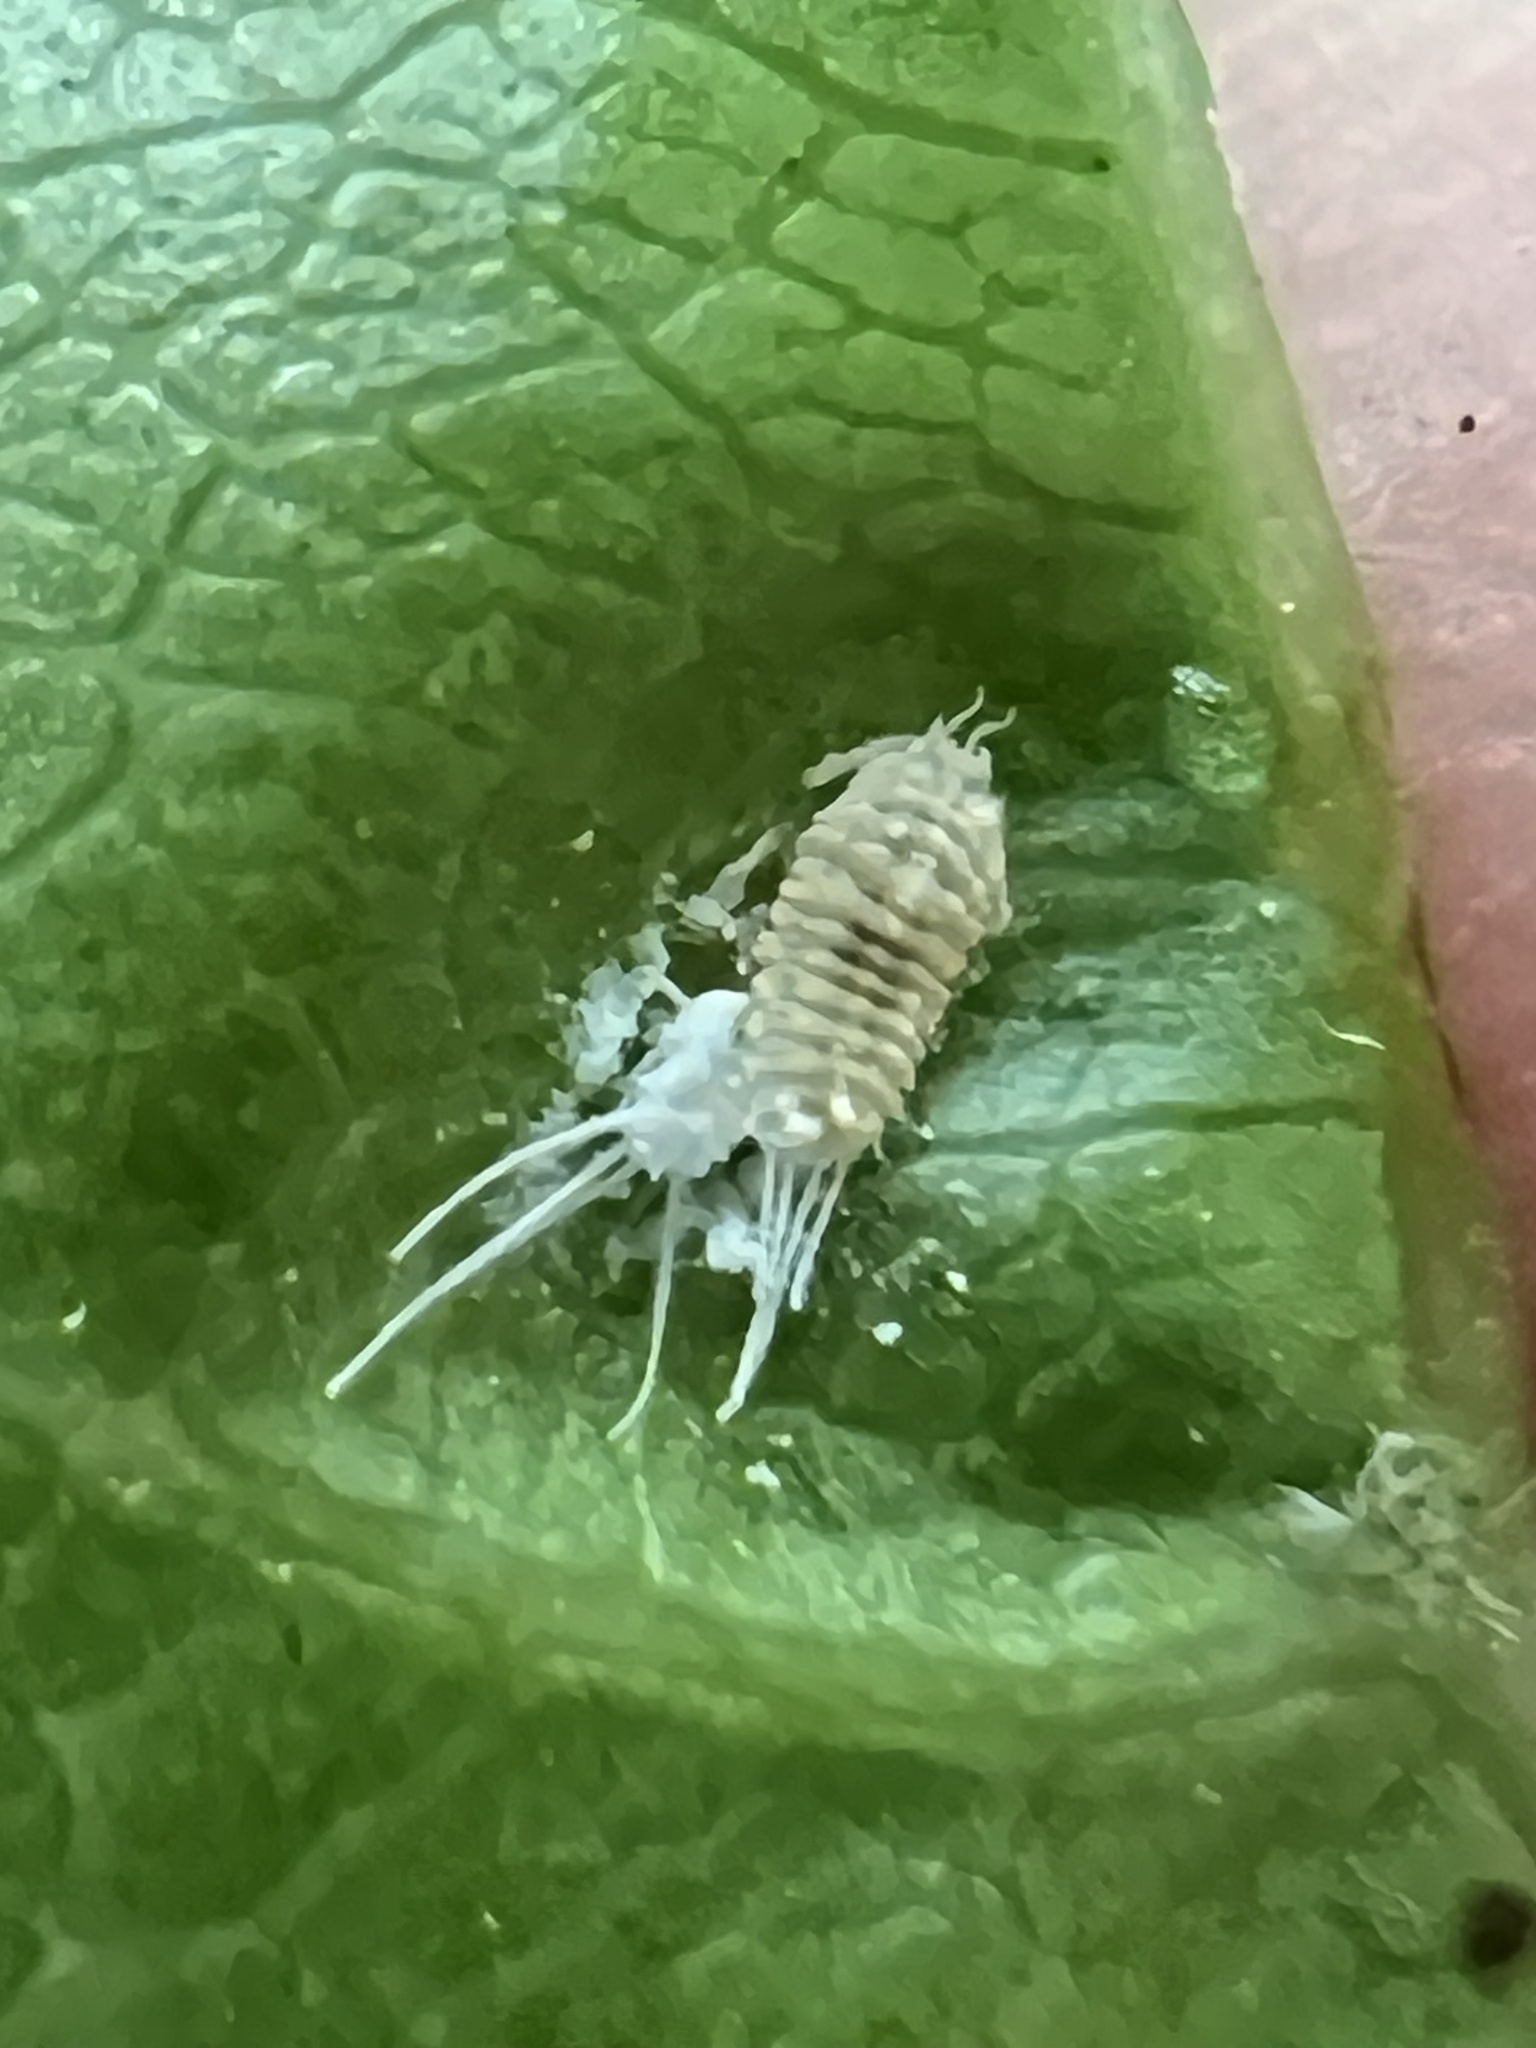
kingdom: Animalia
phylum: Arthropoda
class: Insecta
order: Hemiptera
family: Pseudococcidae
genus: Pseudococcus
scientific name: Pseudococcus longispinus
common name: Long-tailed mealybug
